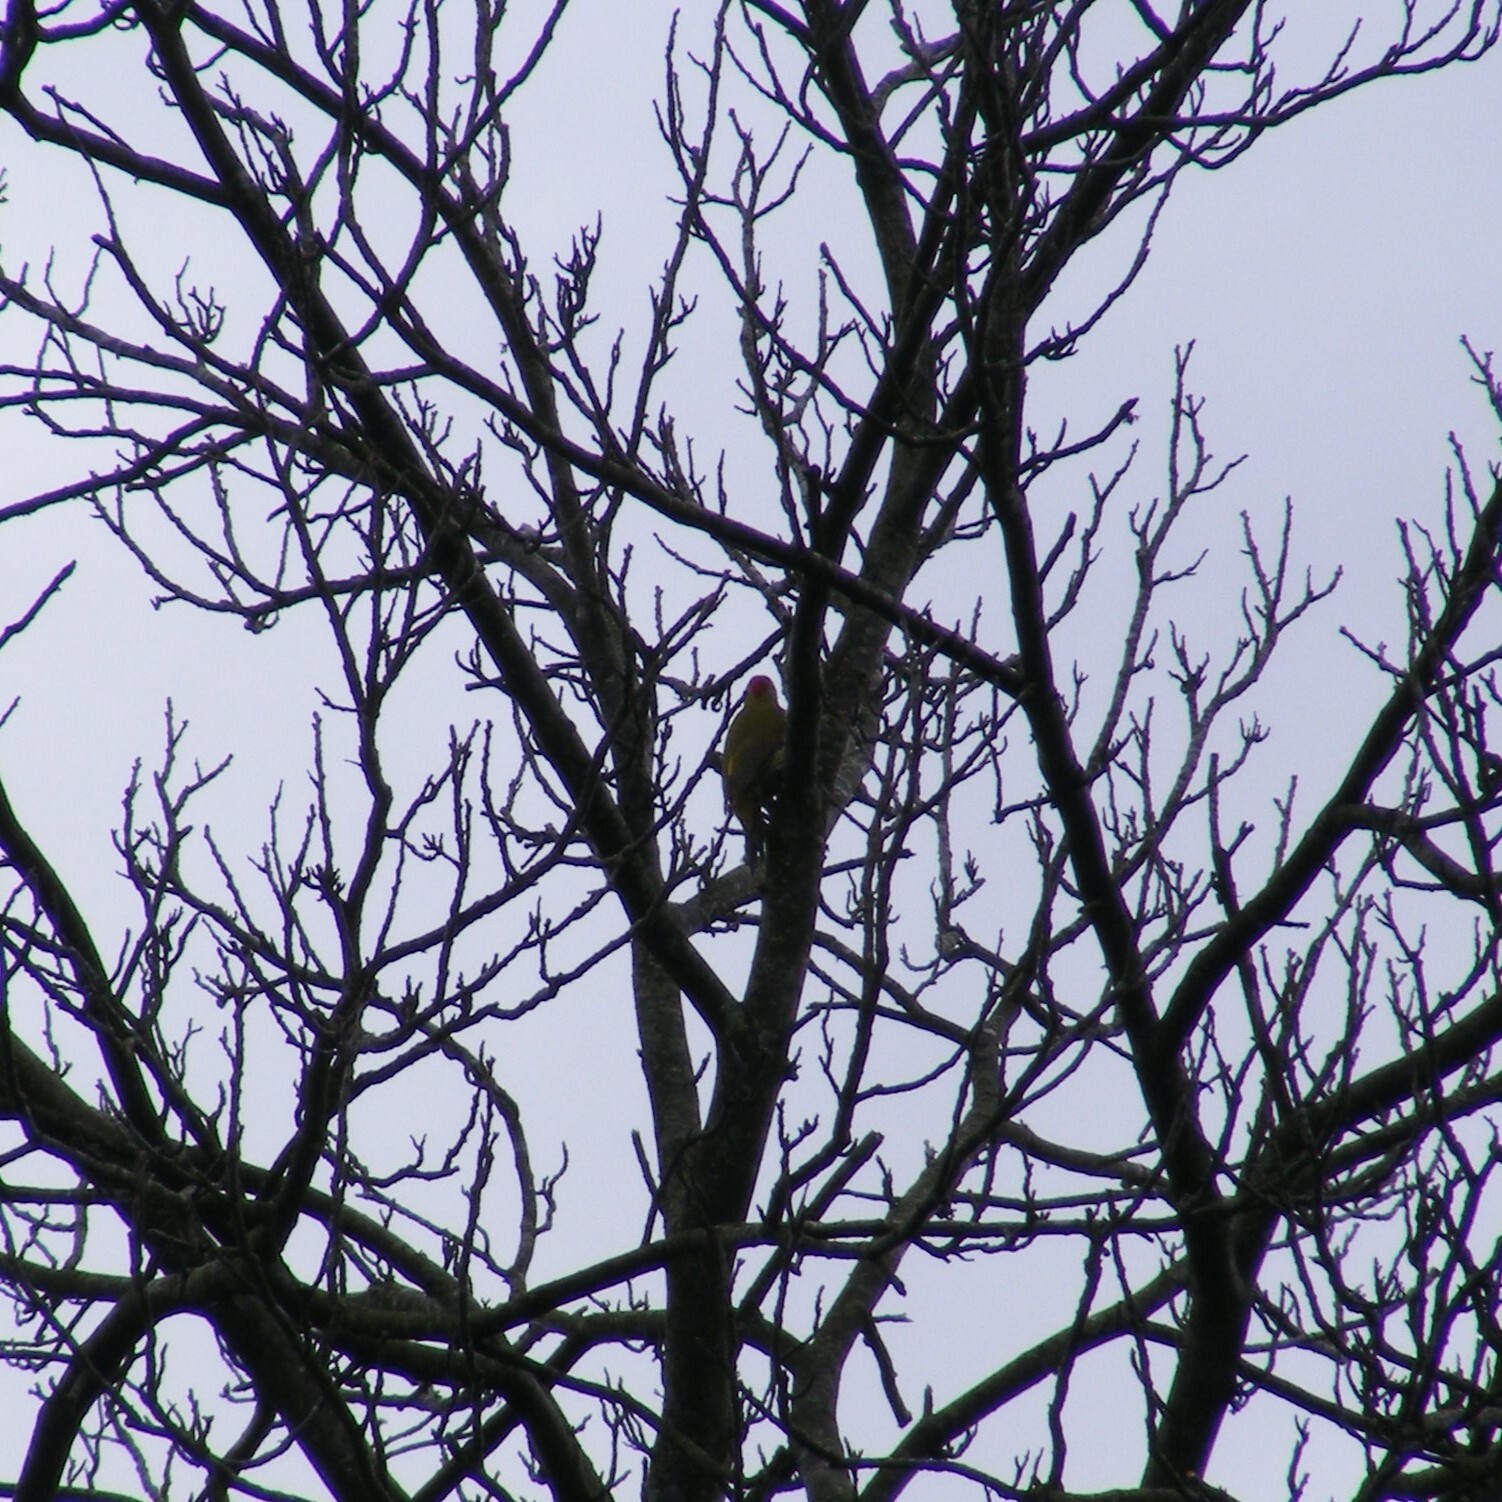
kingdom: Animalia
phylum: Chordata
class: Aves
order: Piciformes
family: Picidae
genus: Picus
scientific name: Picus viridis
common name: European green woodpecker
